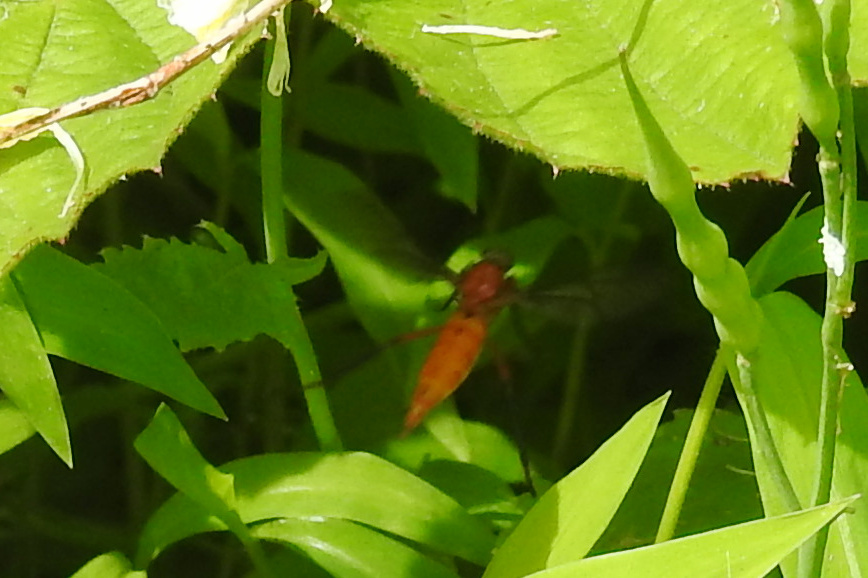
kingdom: Animalia
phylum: Arthropoda
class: Insecta
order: Diptera
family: Xylophagidae
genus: Coenomyia
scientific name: Coenomyia ferruginea
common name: Stink fly
